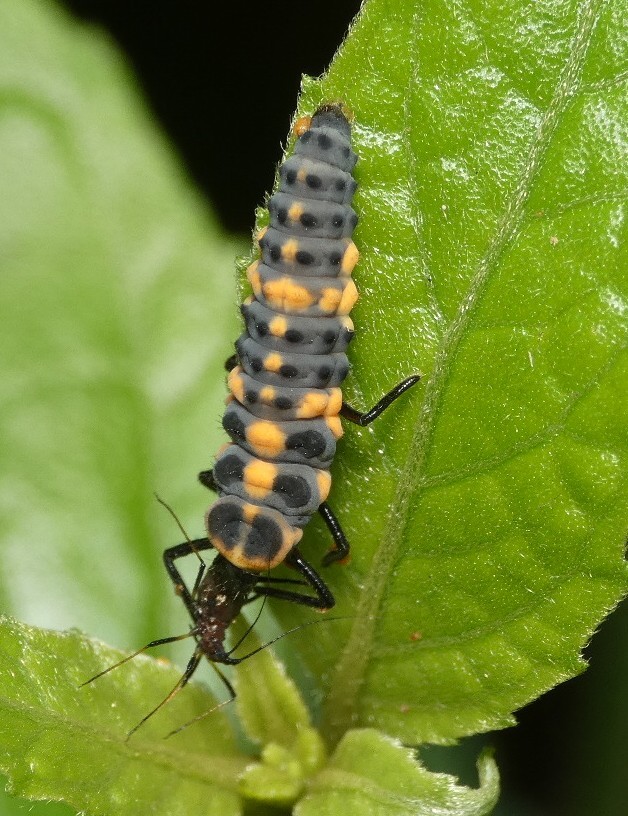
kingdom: Animalia
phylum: Arthropoda
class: Insecta
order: Coleoptera
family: Coccinellidae
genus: Cycloneda
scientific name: Cycloneda sanguinea
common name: Ladybird beetle
